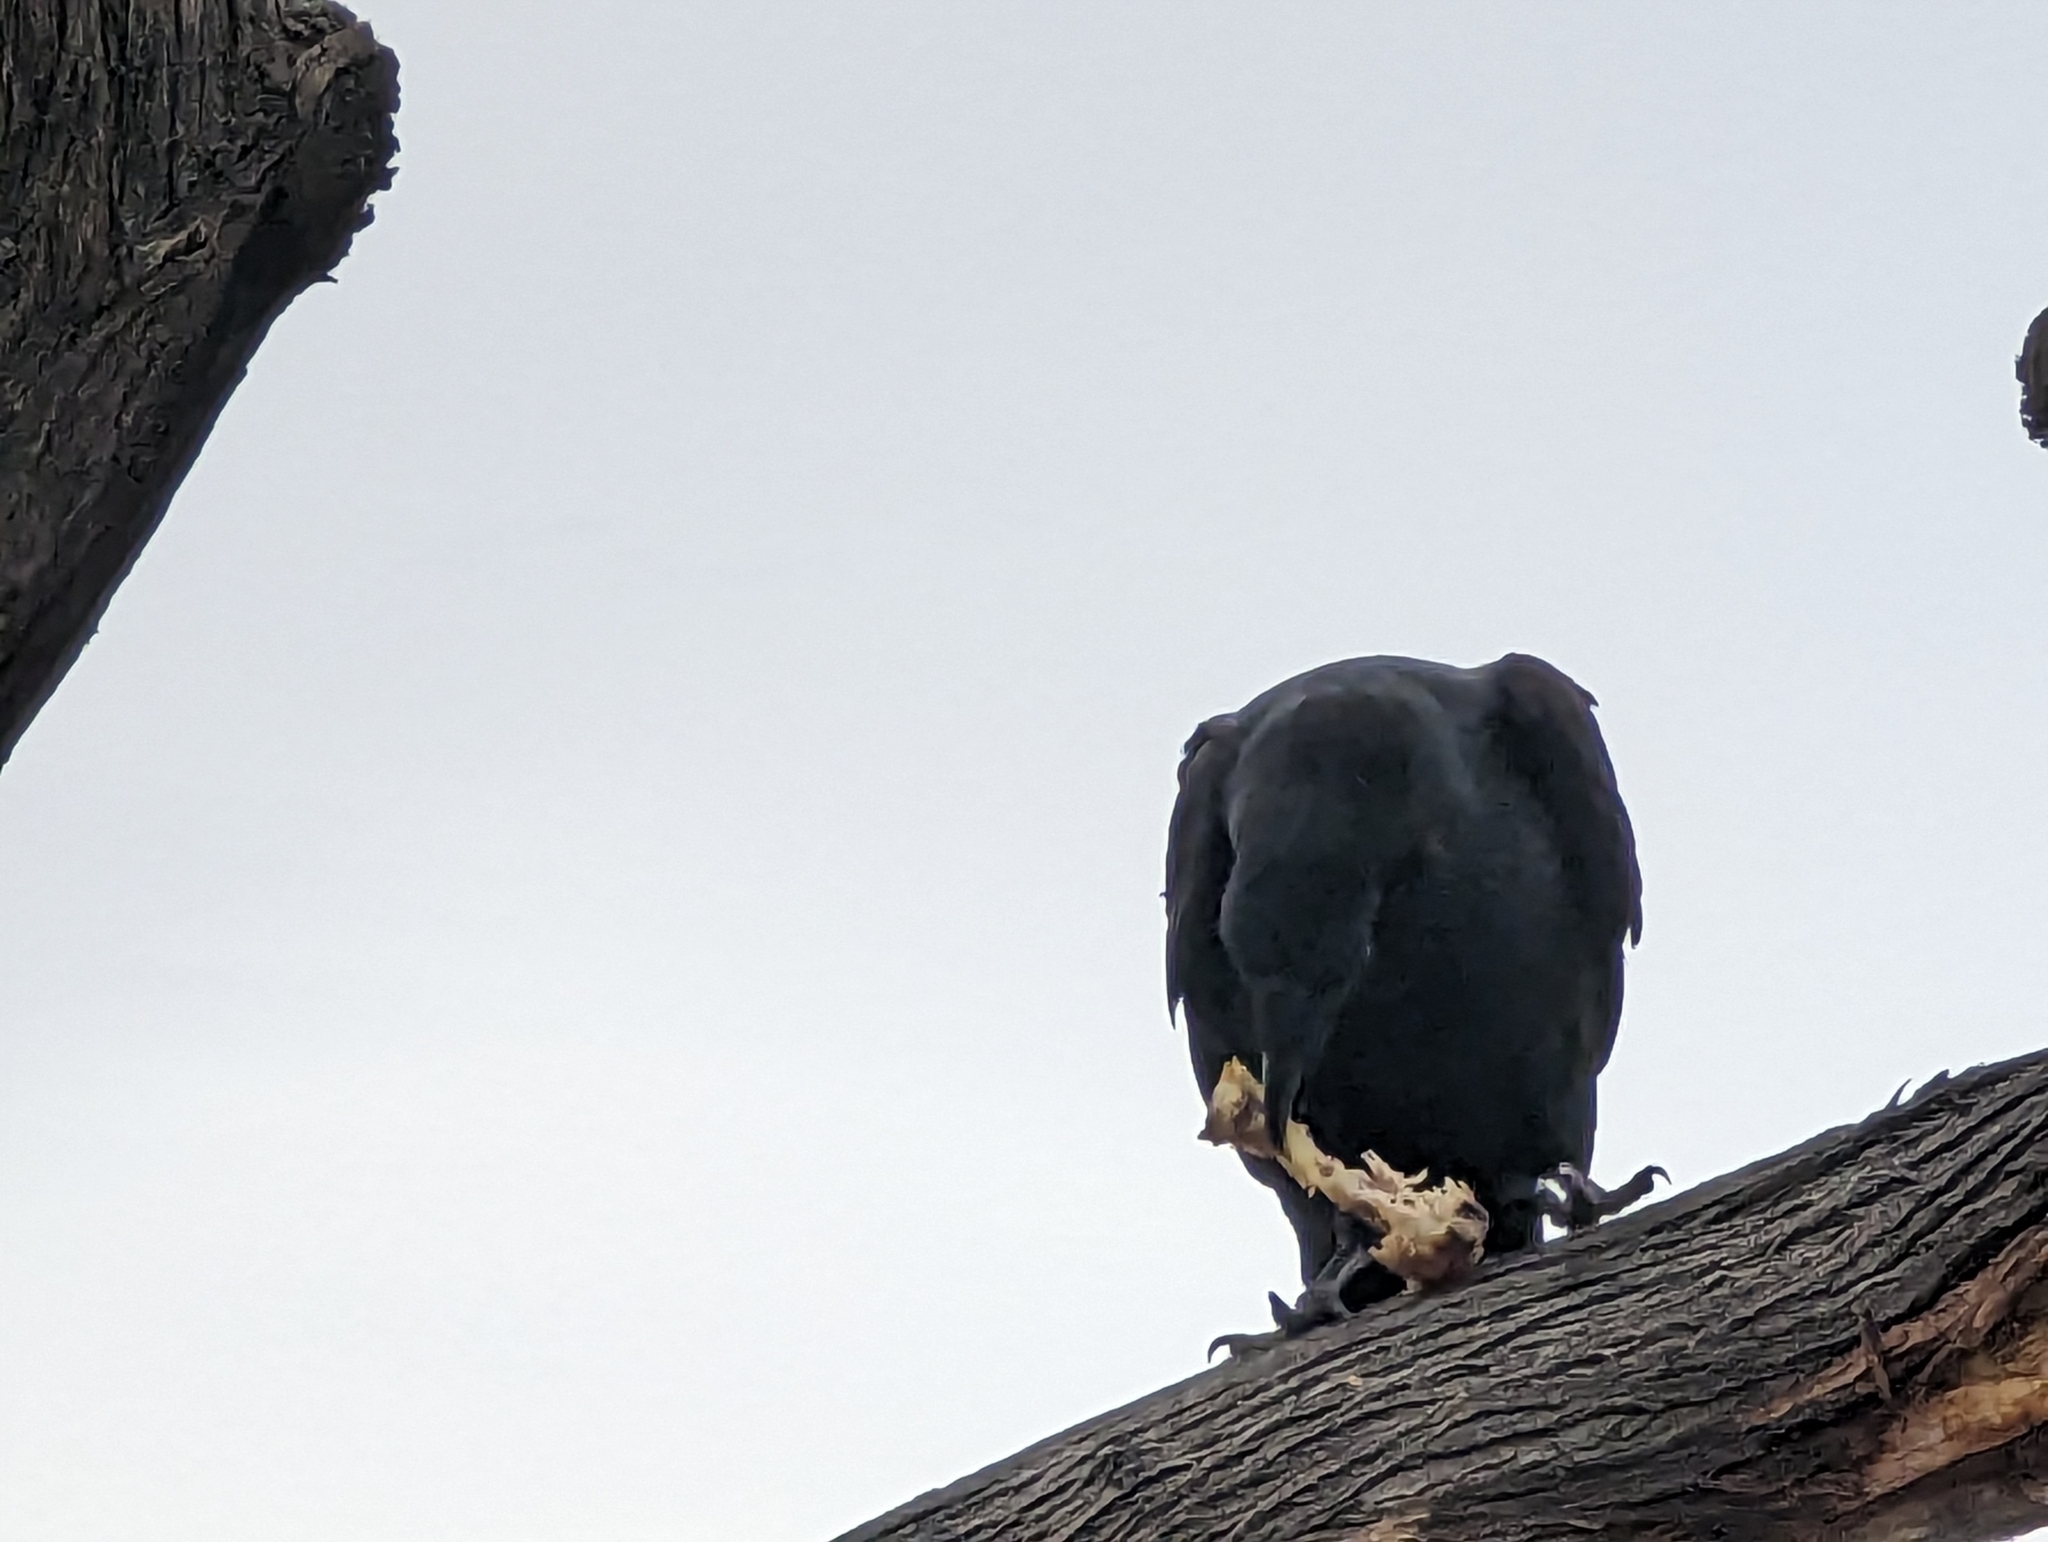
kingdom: Animalia
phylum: Chordata
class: Aves
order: Passeriformes
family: Corvidae
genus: Corvus
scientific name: Corvus corax
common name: Common raven
